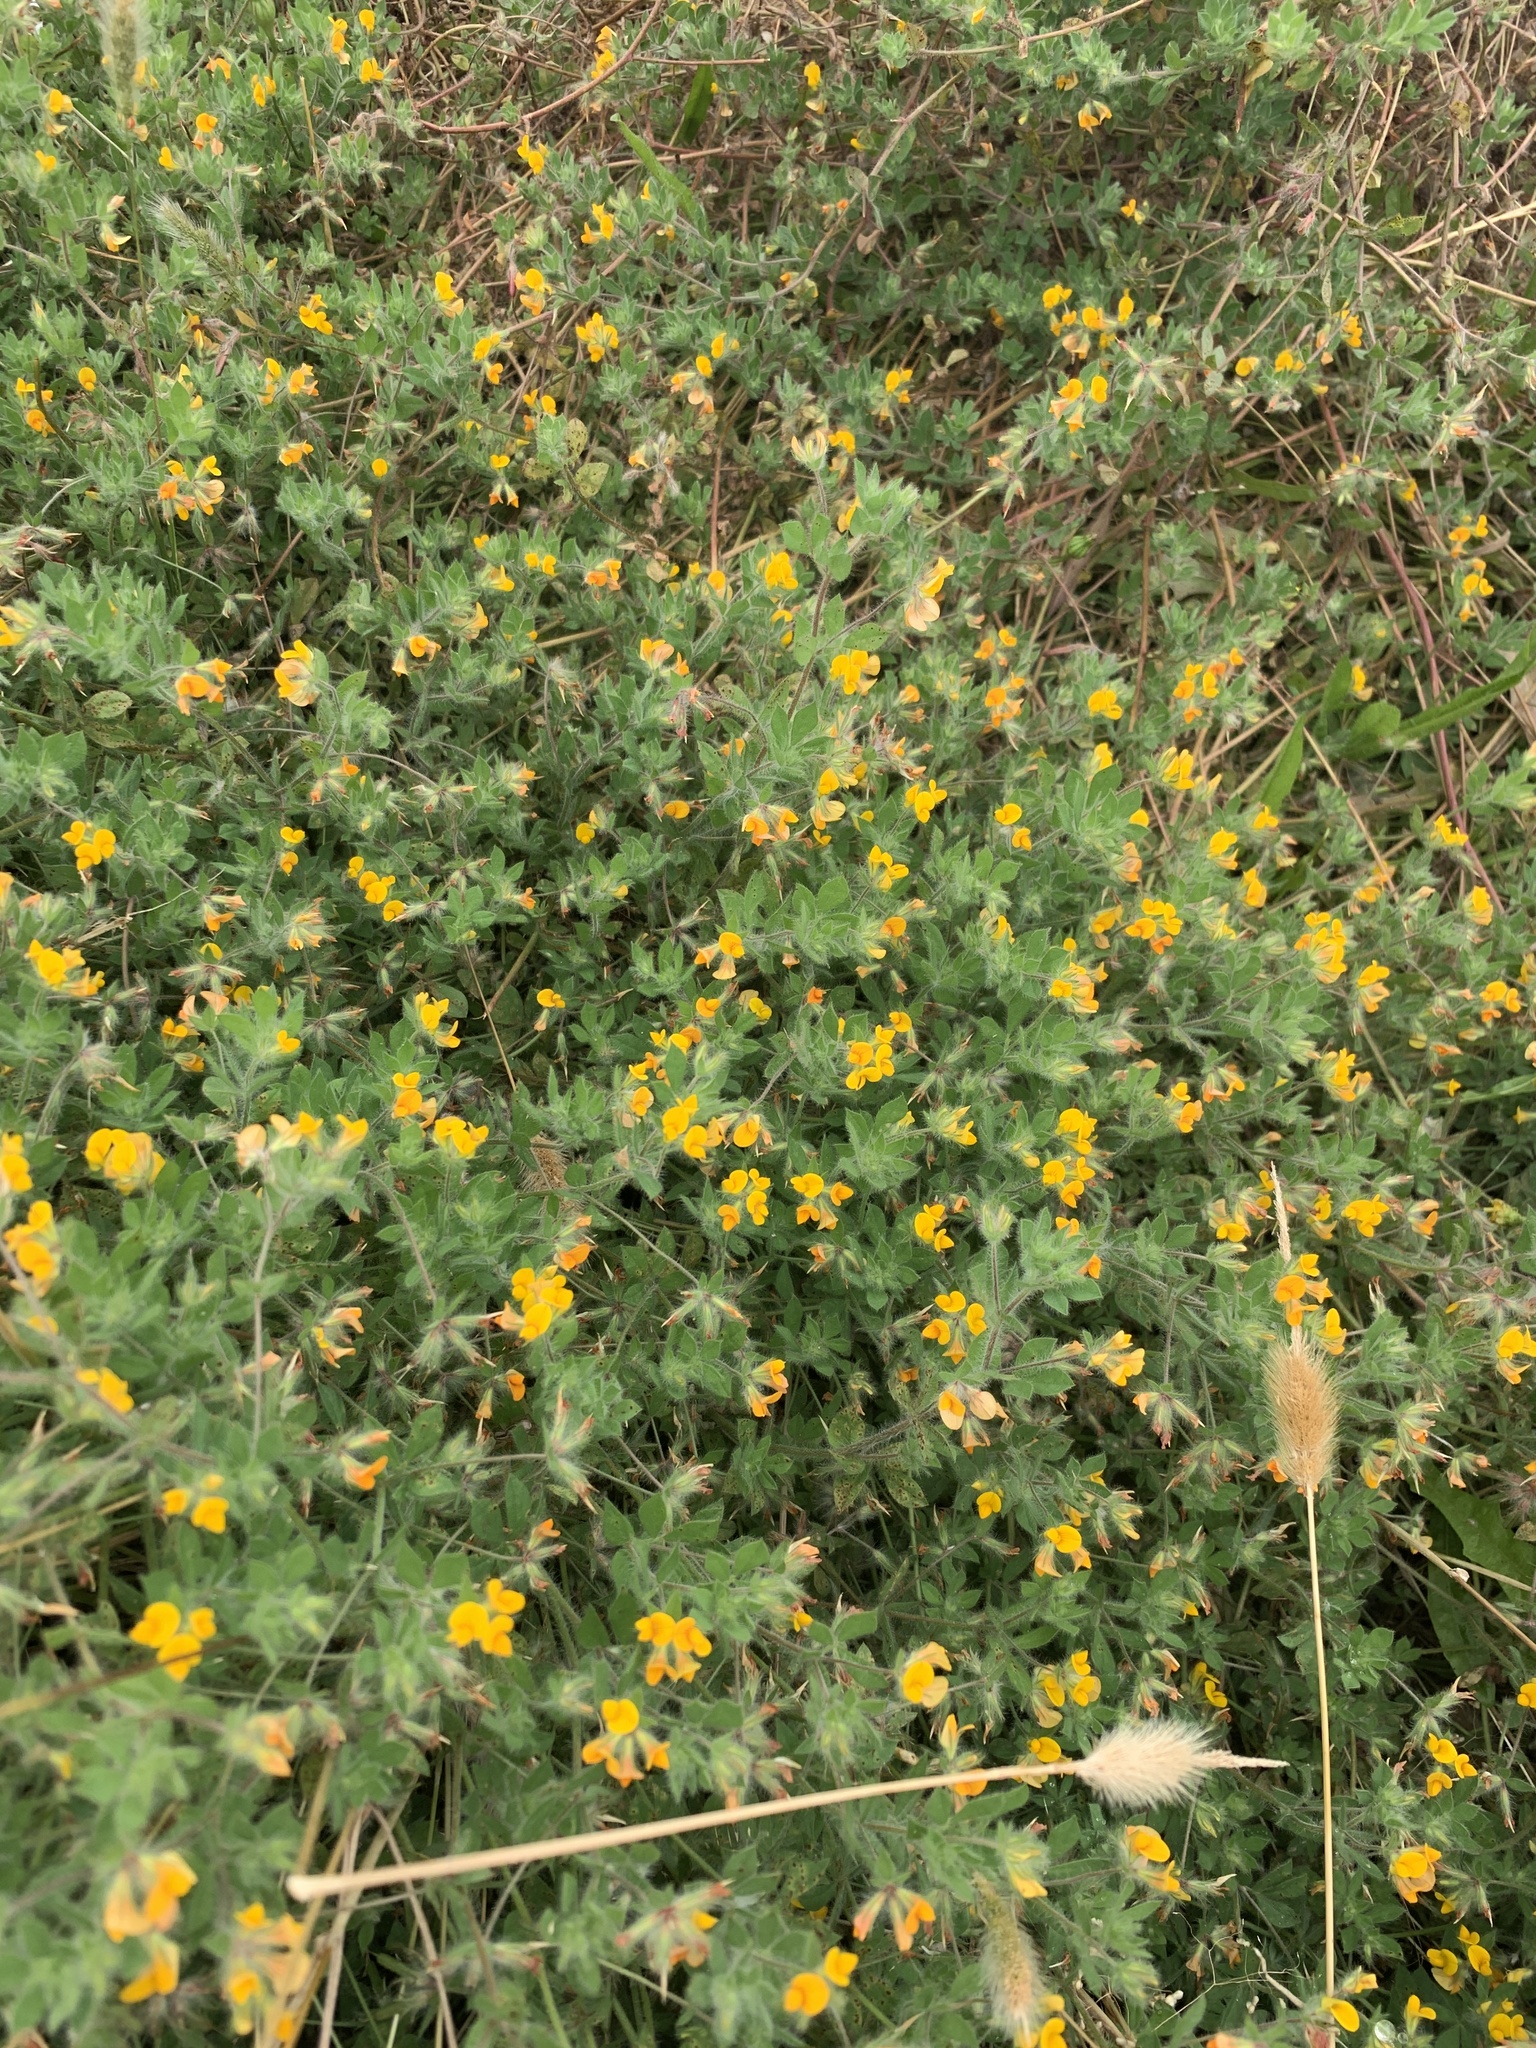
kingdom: Plantae
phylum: Tracheophyta
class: Magnoliopsida
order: Fabales
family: Fabaceae
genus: Lotus
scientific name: Lotus subbiflorus
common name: Hairy bird's-foot trefoil
